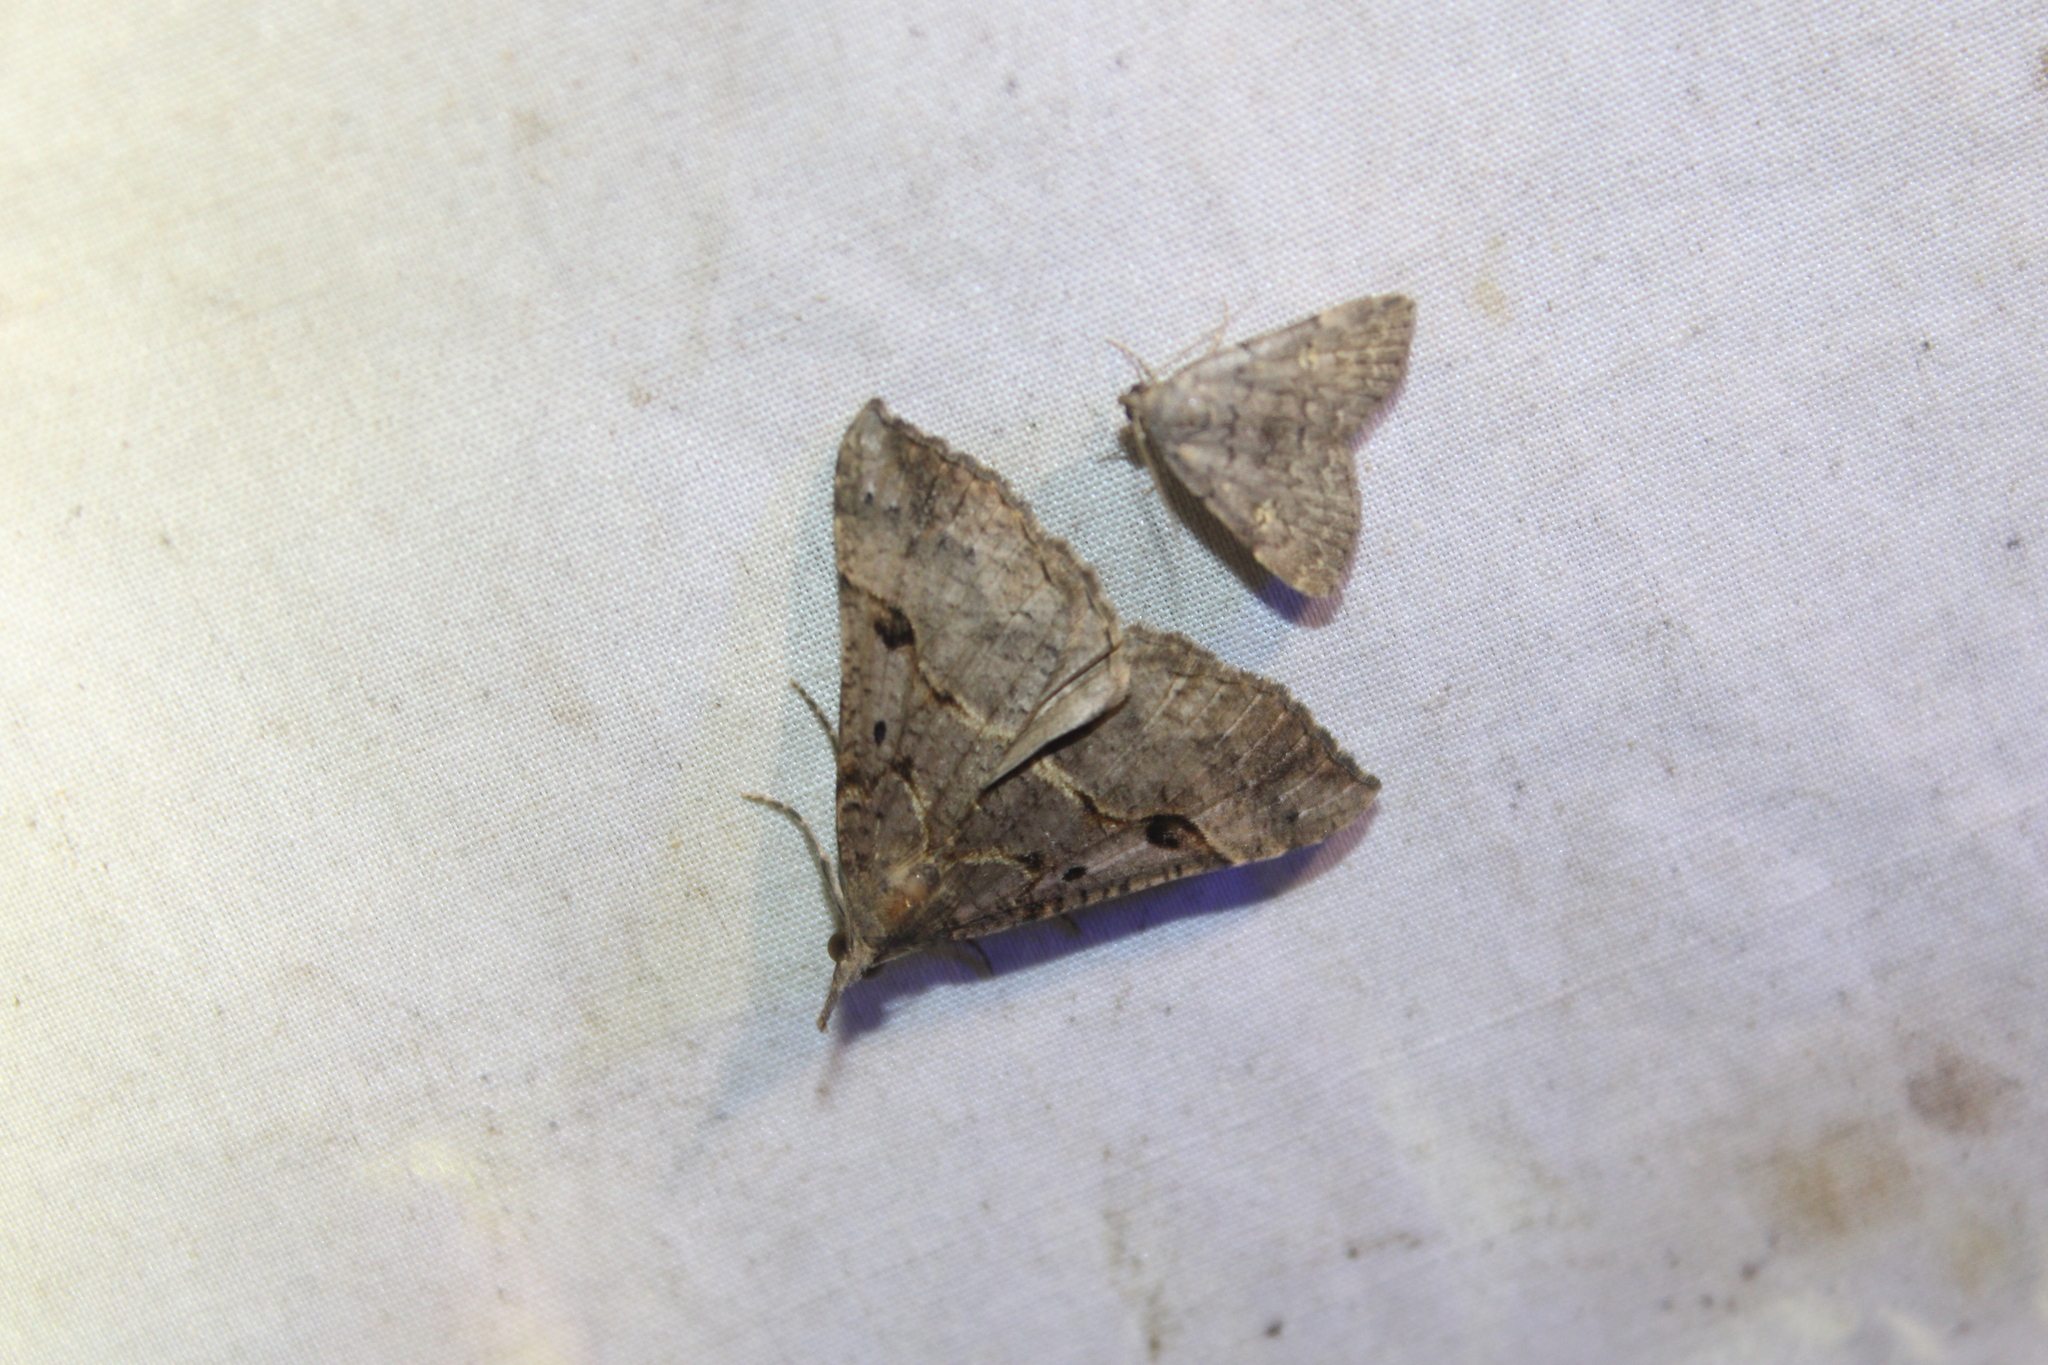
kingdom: Animalia
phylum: Arthropoda
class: Insecta
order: Lepidoptera
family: Erebidae
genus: Hypena
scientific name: Hypena edictalis
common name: Large snout
